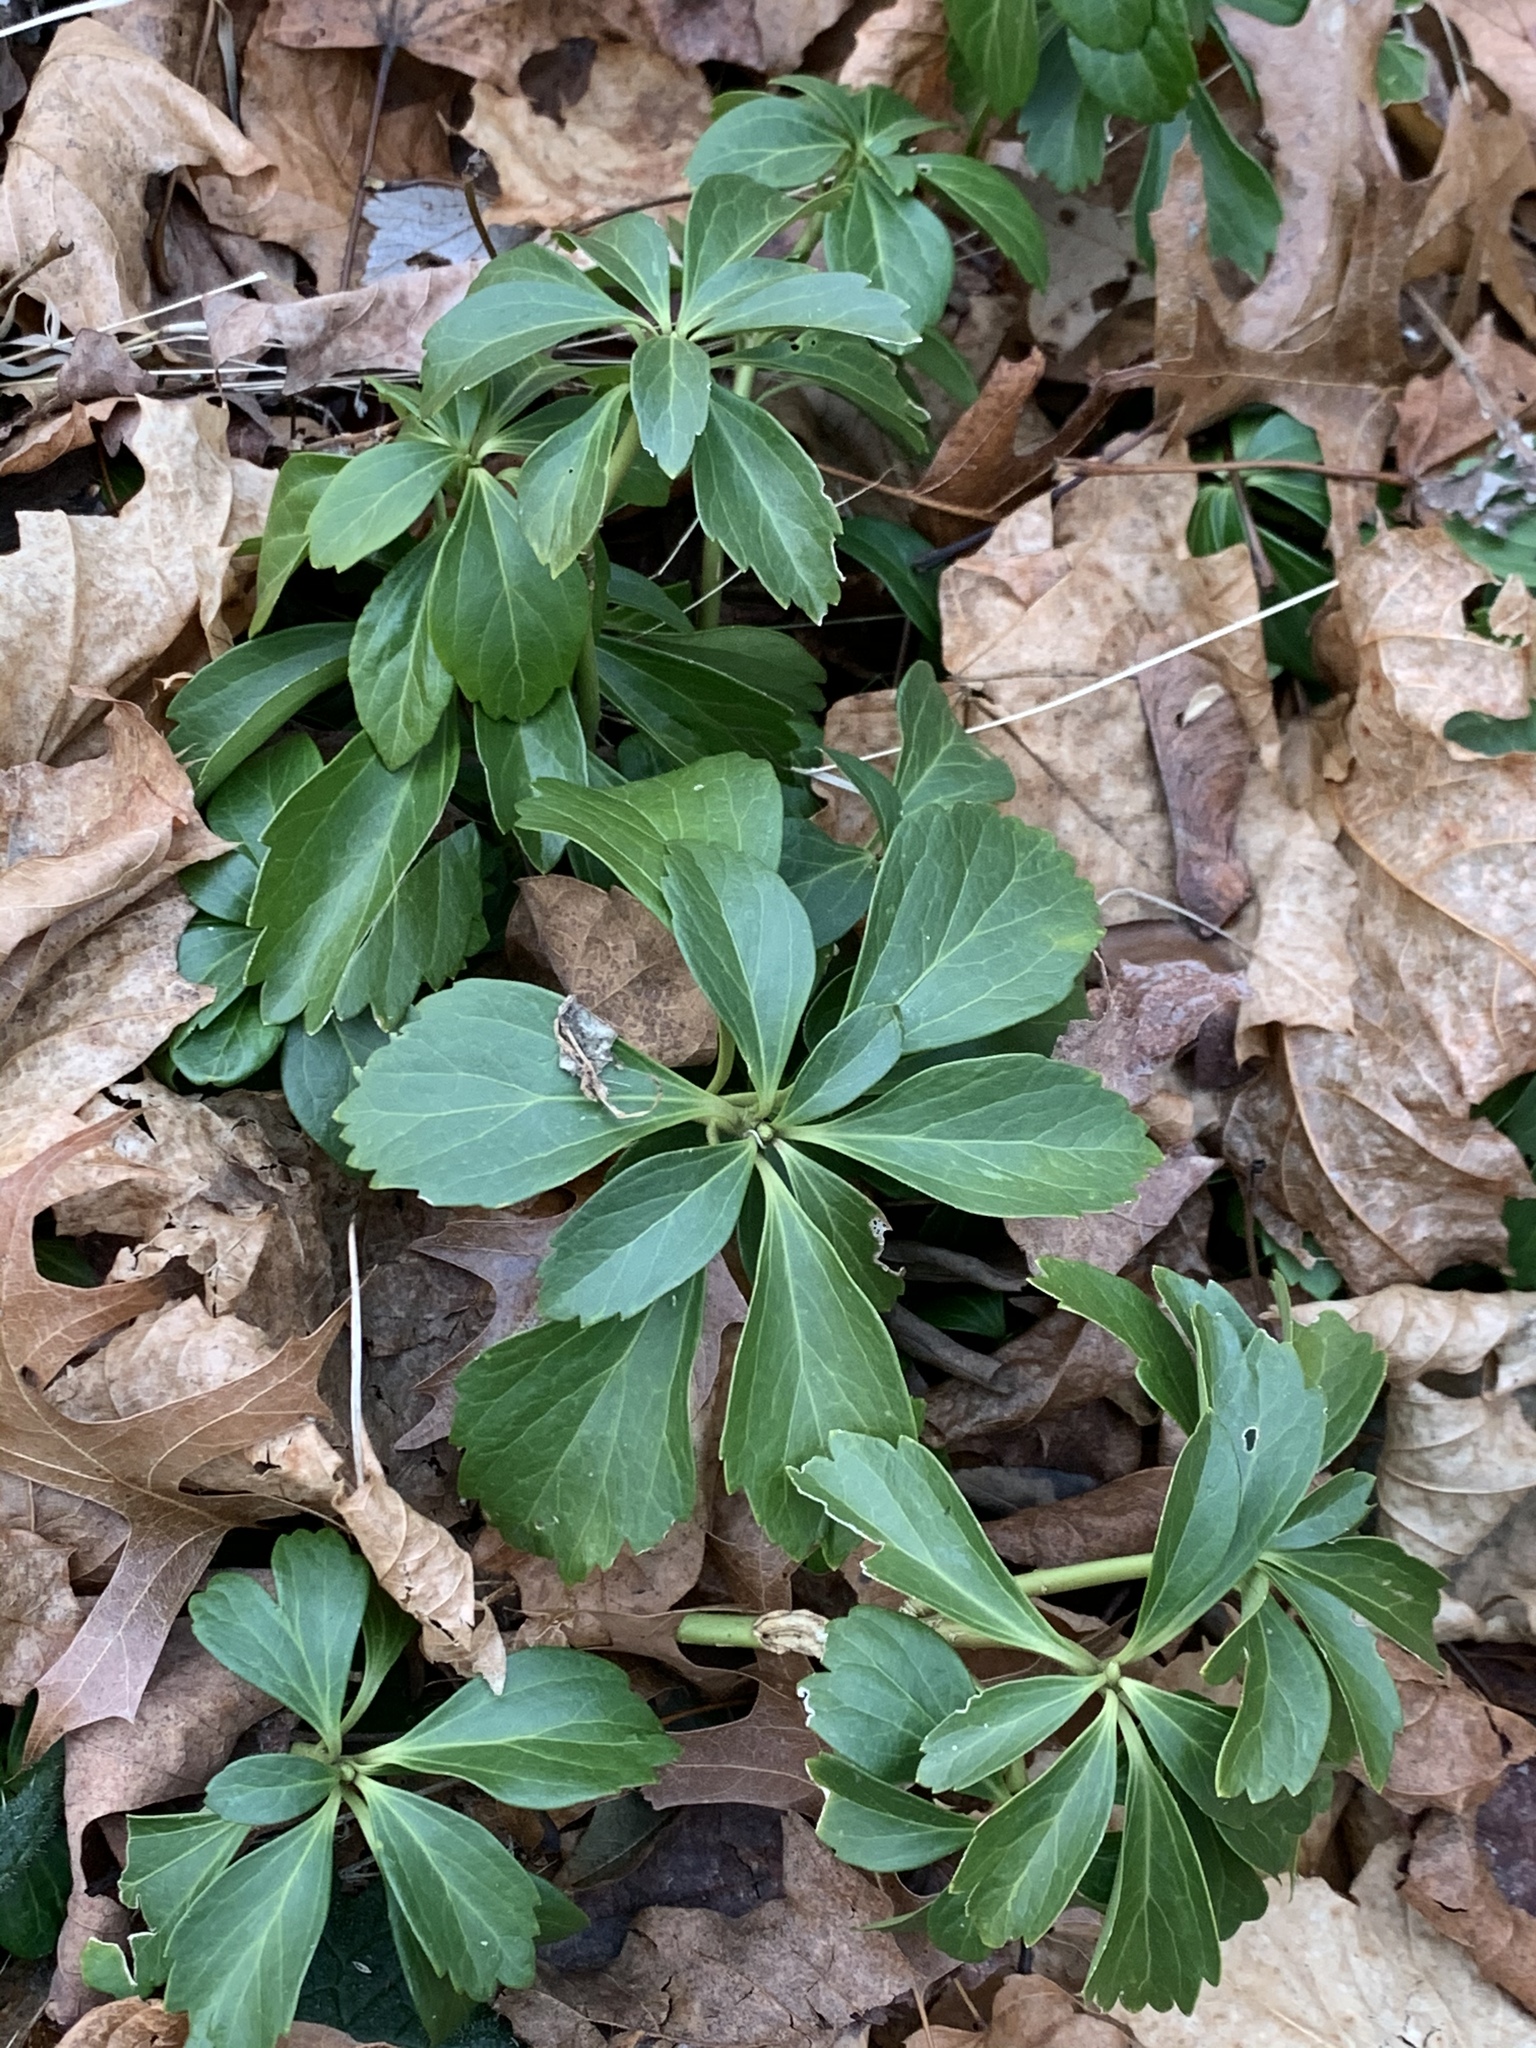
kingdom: Plantae
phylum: Tracheophyta
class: Magnoliopsida
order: Buxales
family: Buxaceae
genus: Pachysandra
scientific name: Pachysandra terminalis
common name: Japanese pachysandra
